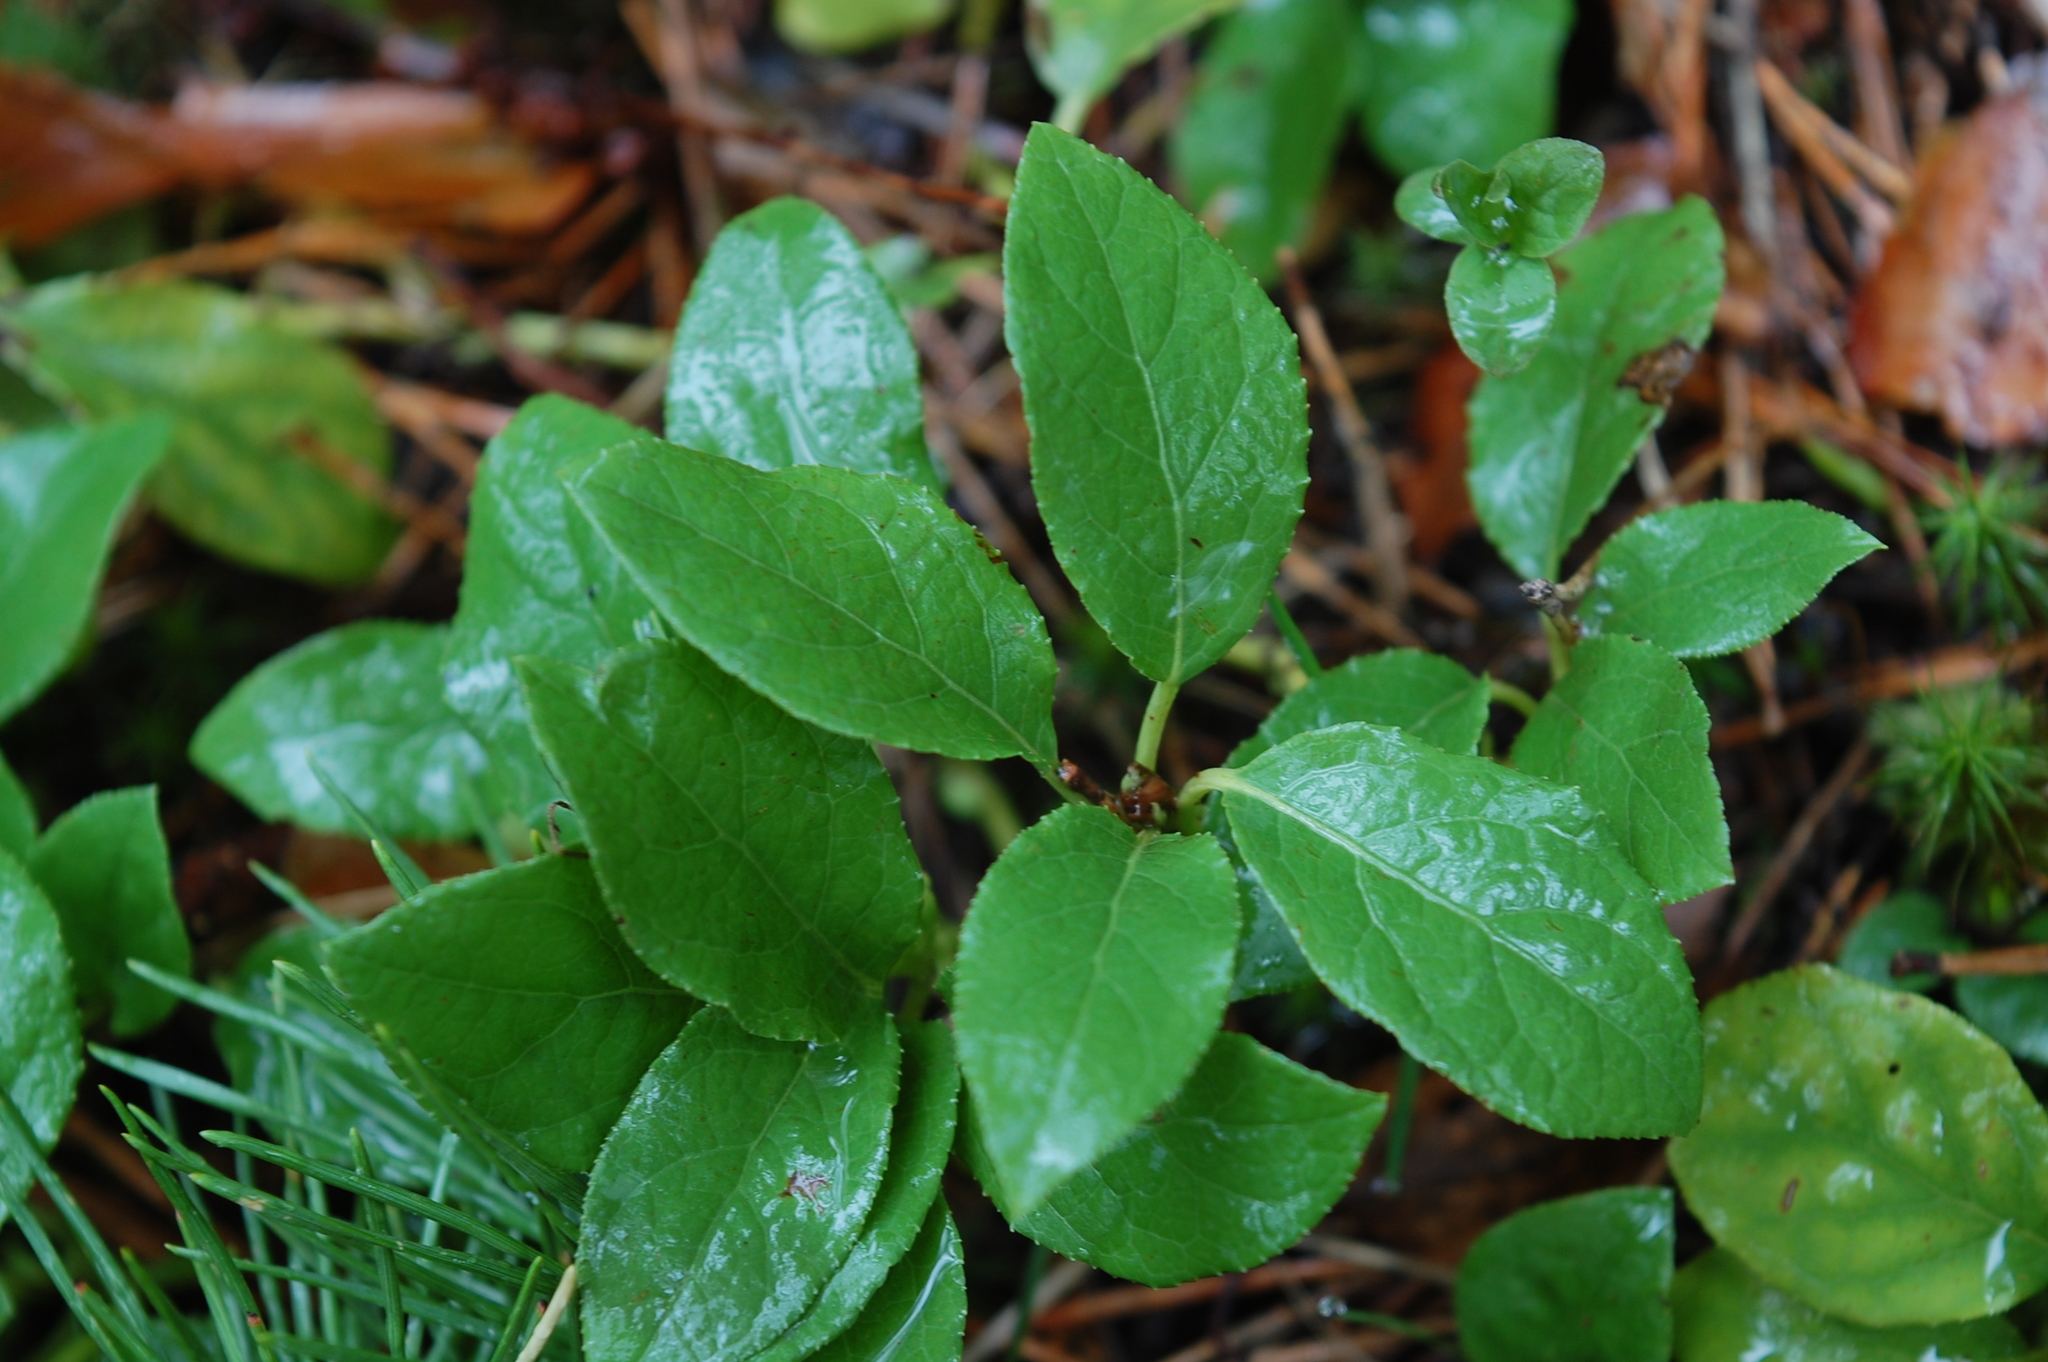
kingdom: Plantae
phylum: Tracheophyta
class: Magnoliopsida
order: Ericales
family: Ericaceae
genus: Orthilia
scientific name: Orthilia secunda
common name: One-sided orthilia
